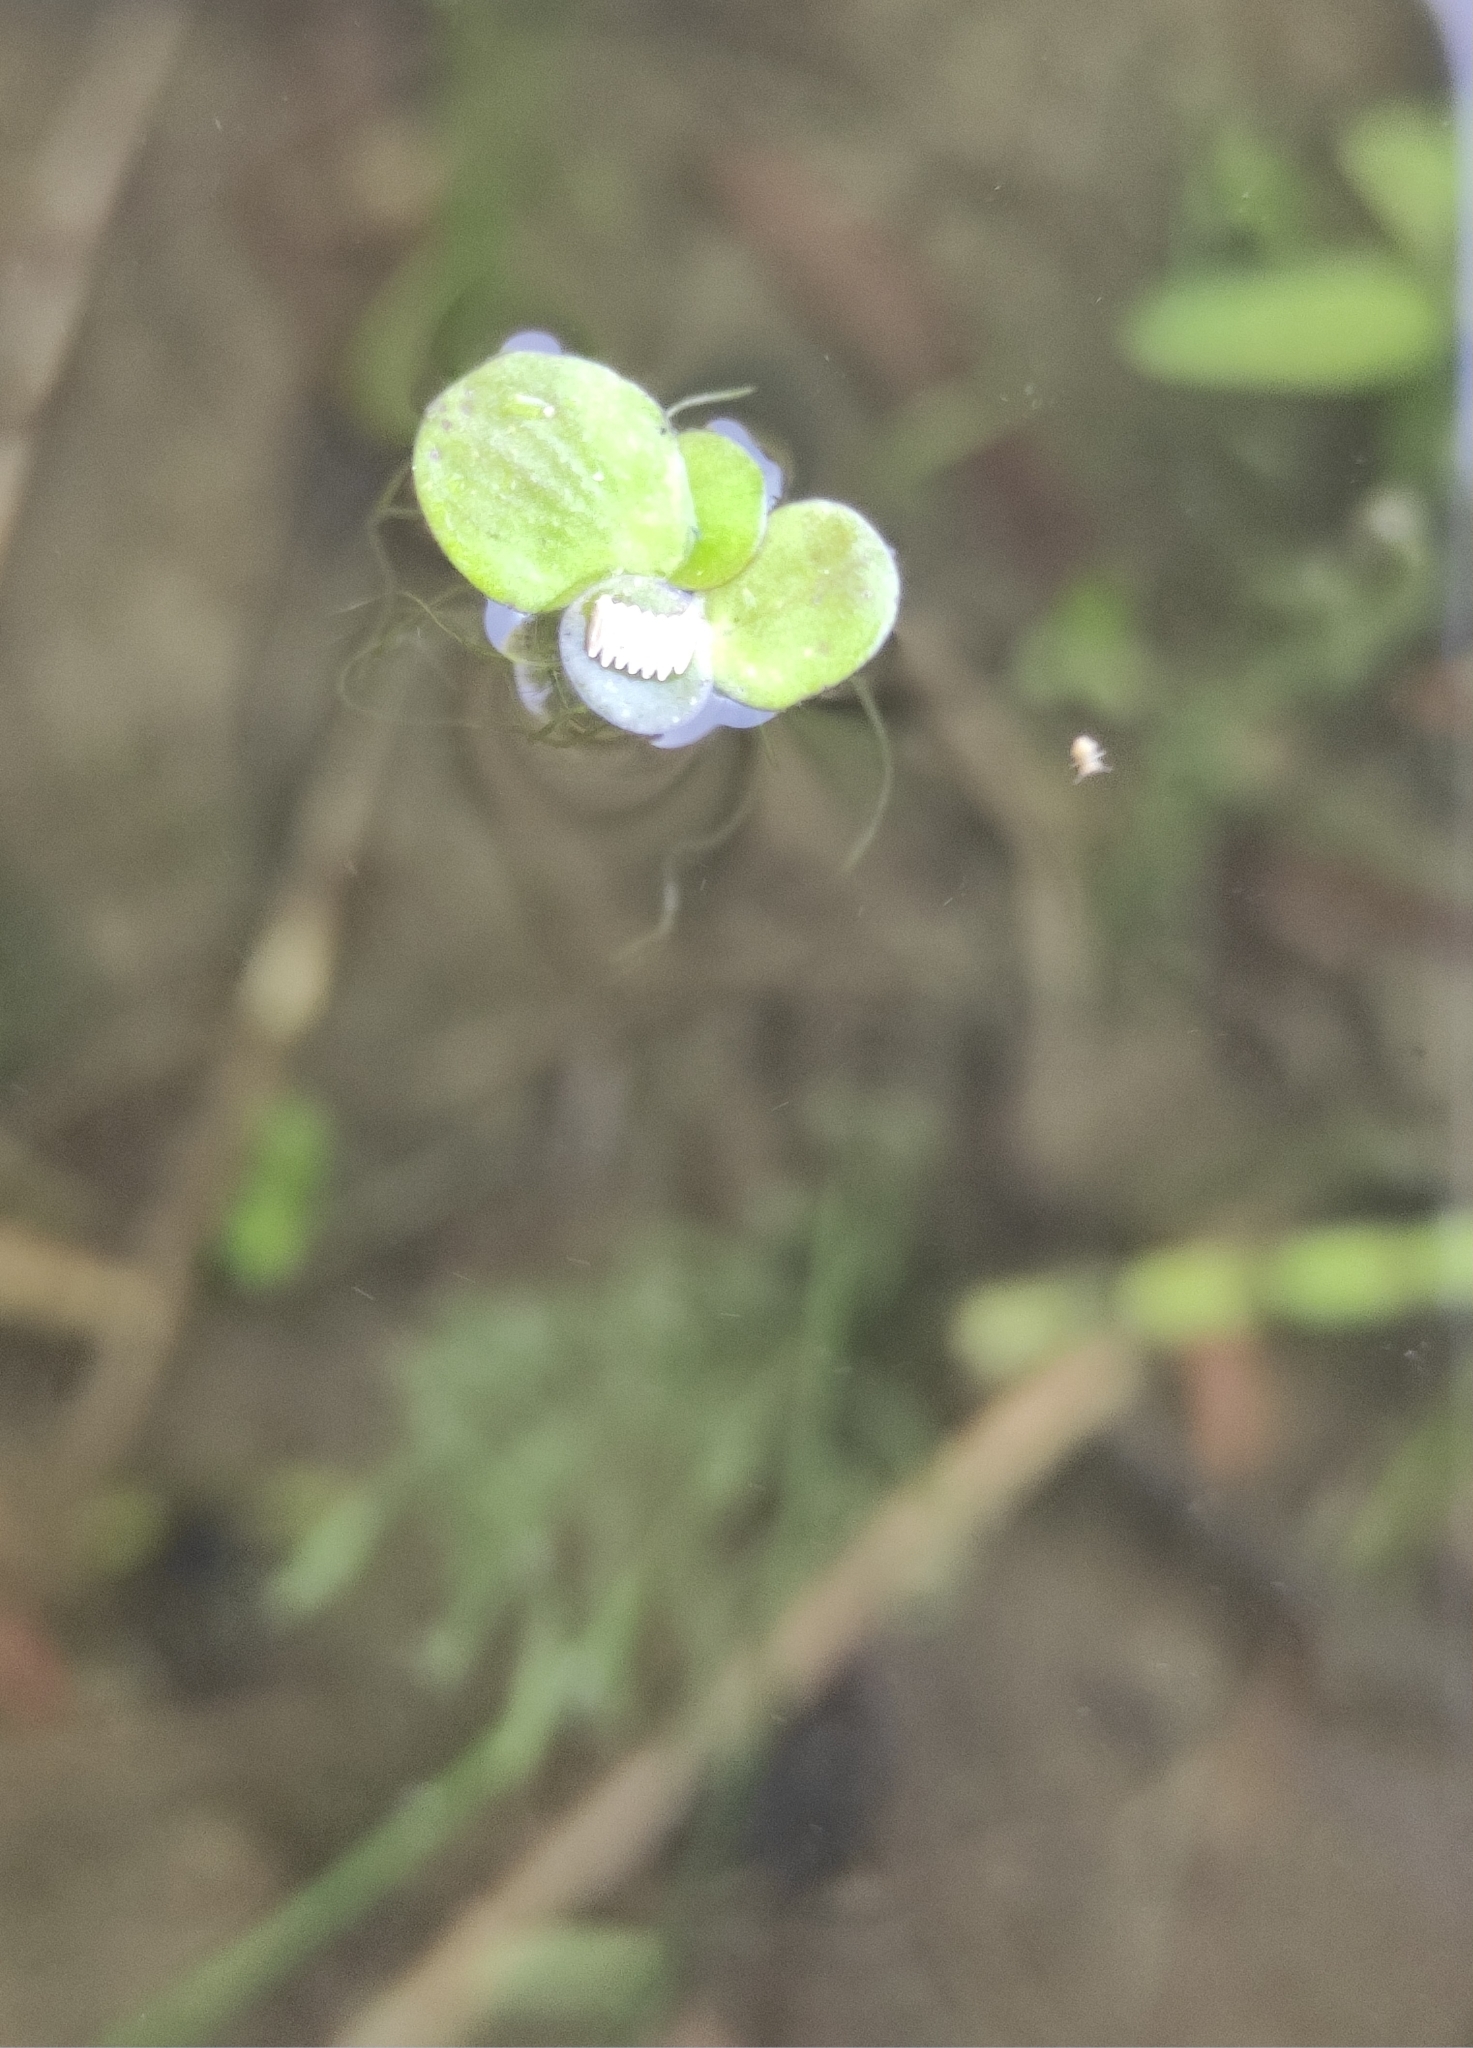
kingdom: Plantae
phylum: Tracheophyta
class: Liliopsida
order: Alismatales
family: Araceae
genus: Spirodela
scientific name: Spirodela polyrhiza
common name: Great duckweed
